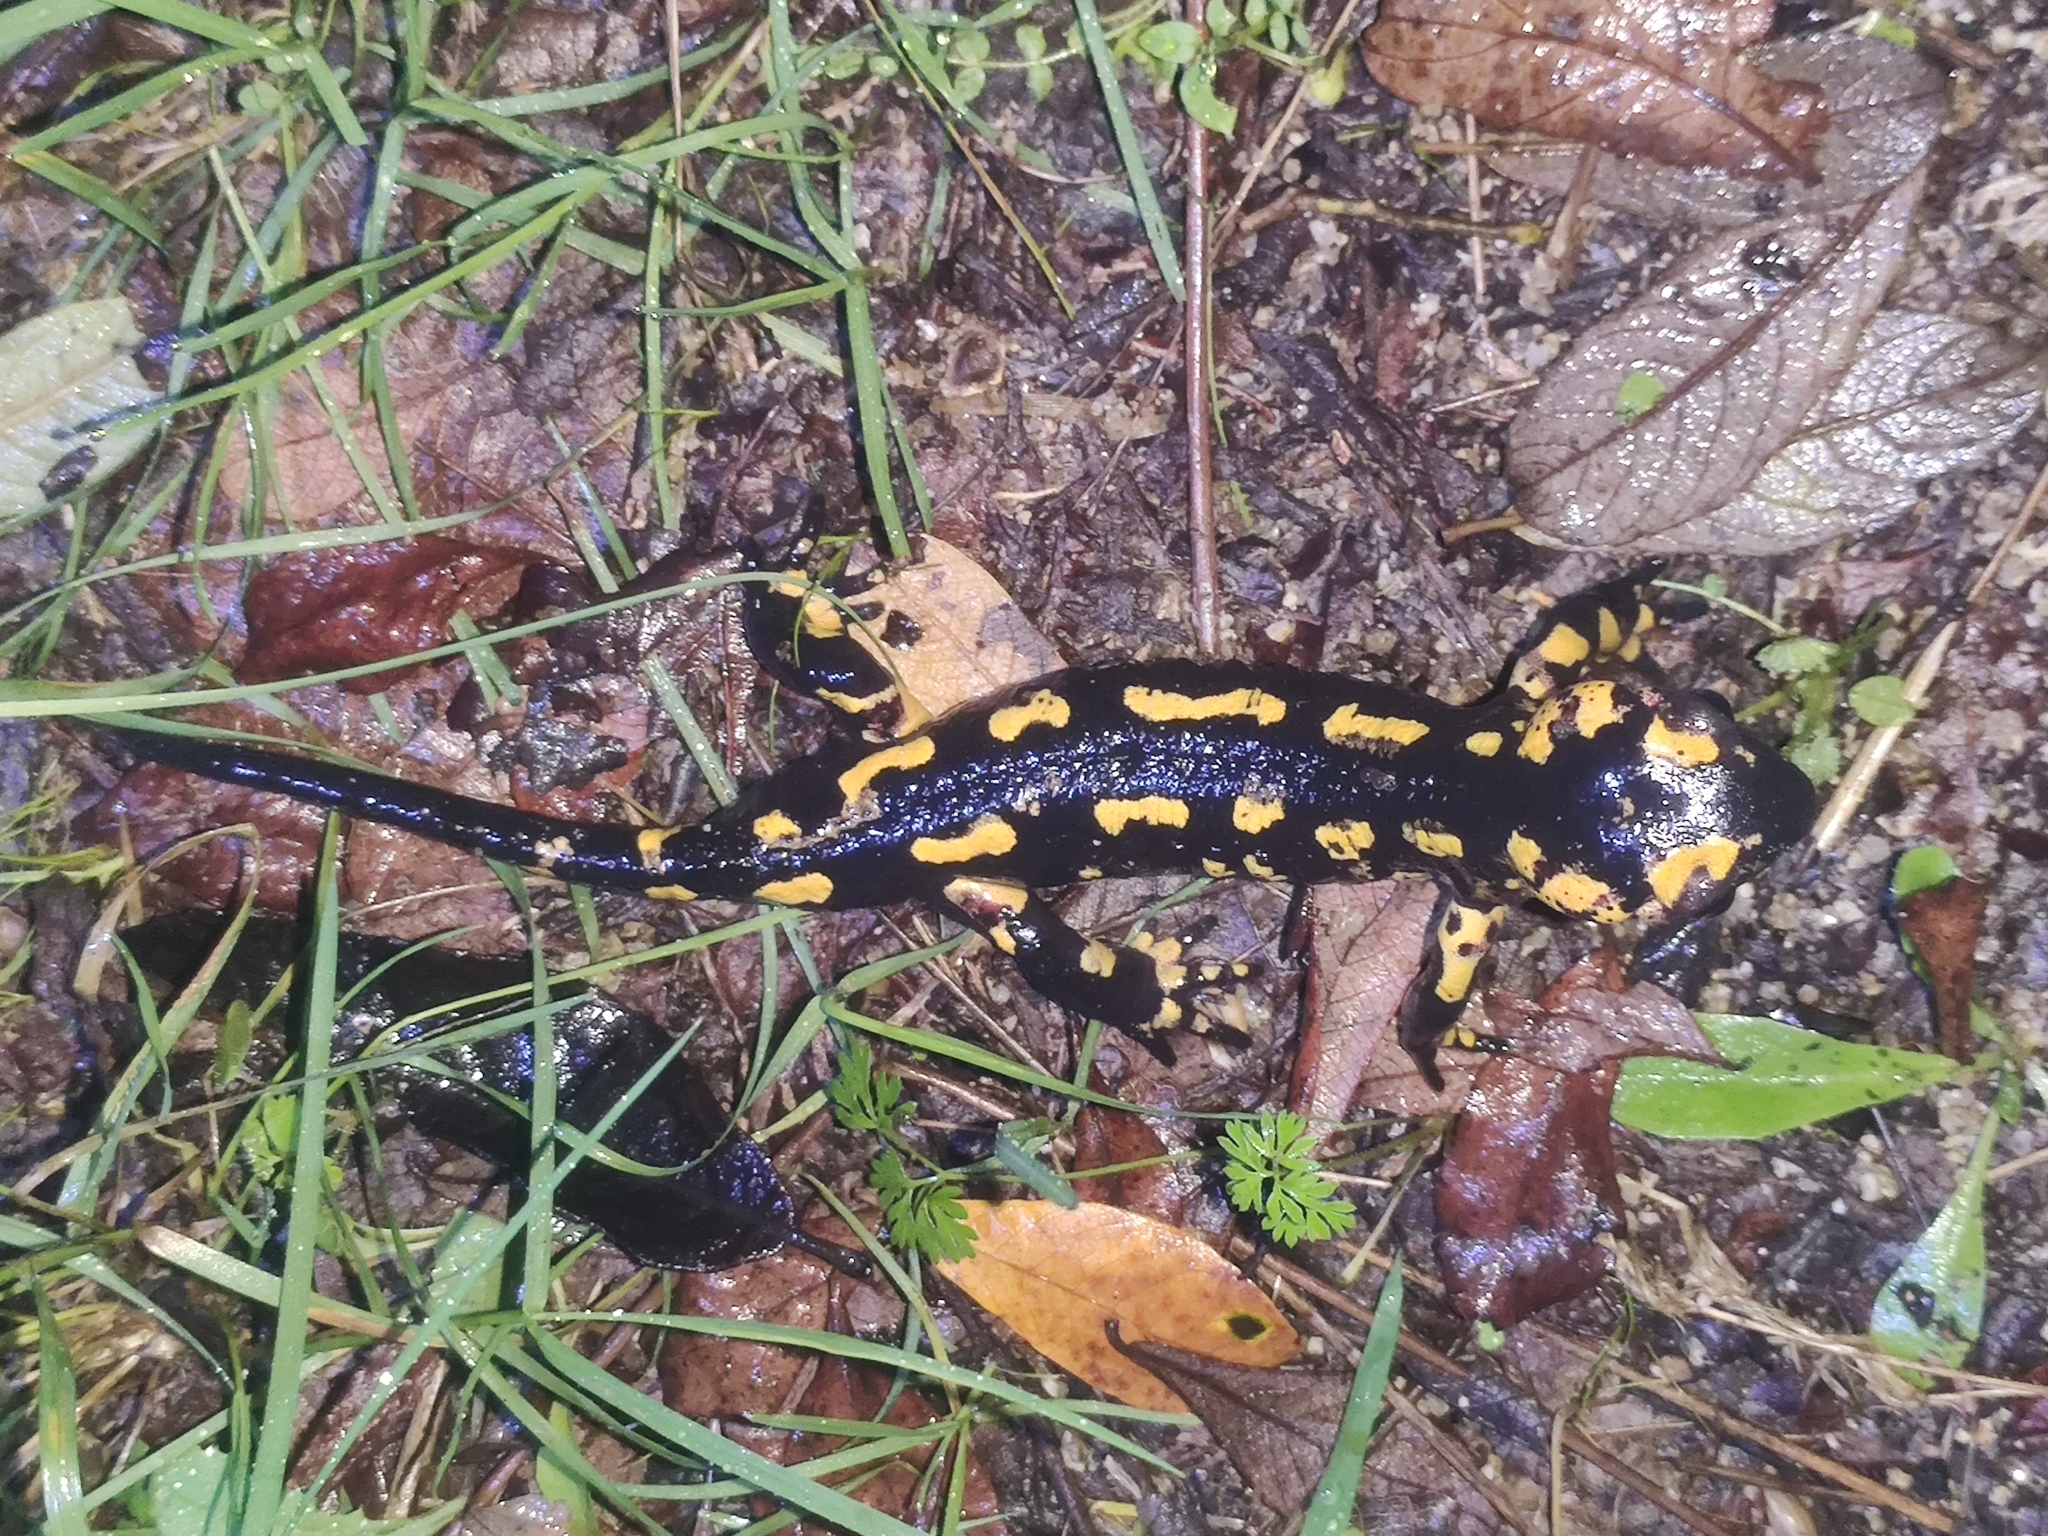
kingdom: Animalia
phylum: Chordata
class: Amphibia
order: Caudata
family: Salamandridae
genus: Salamandra
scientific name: Salamandra salamandra
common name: Fire salamander
